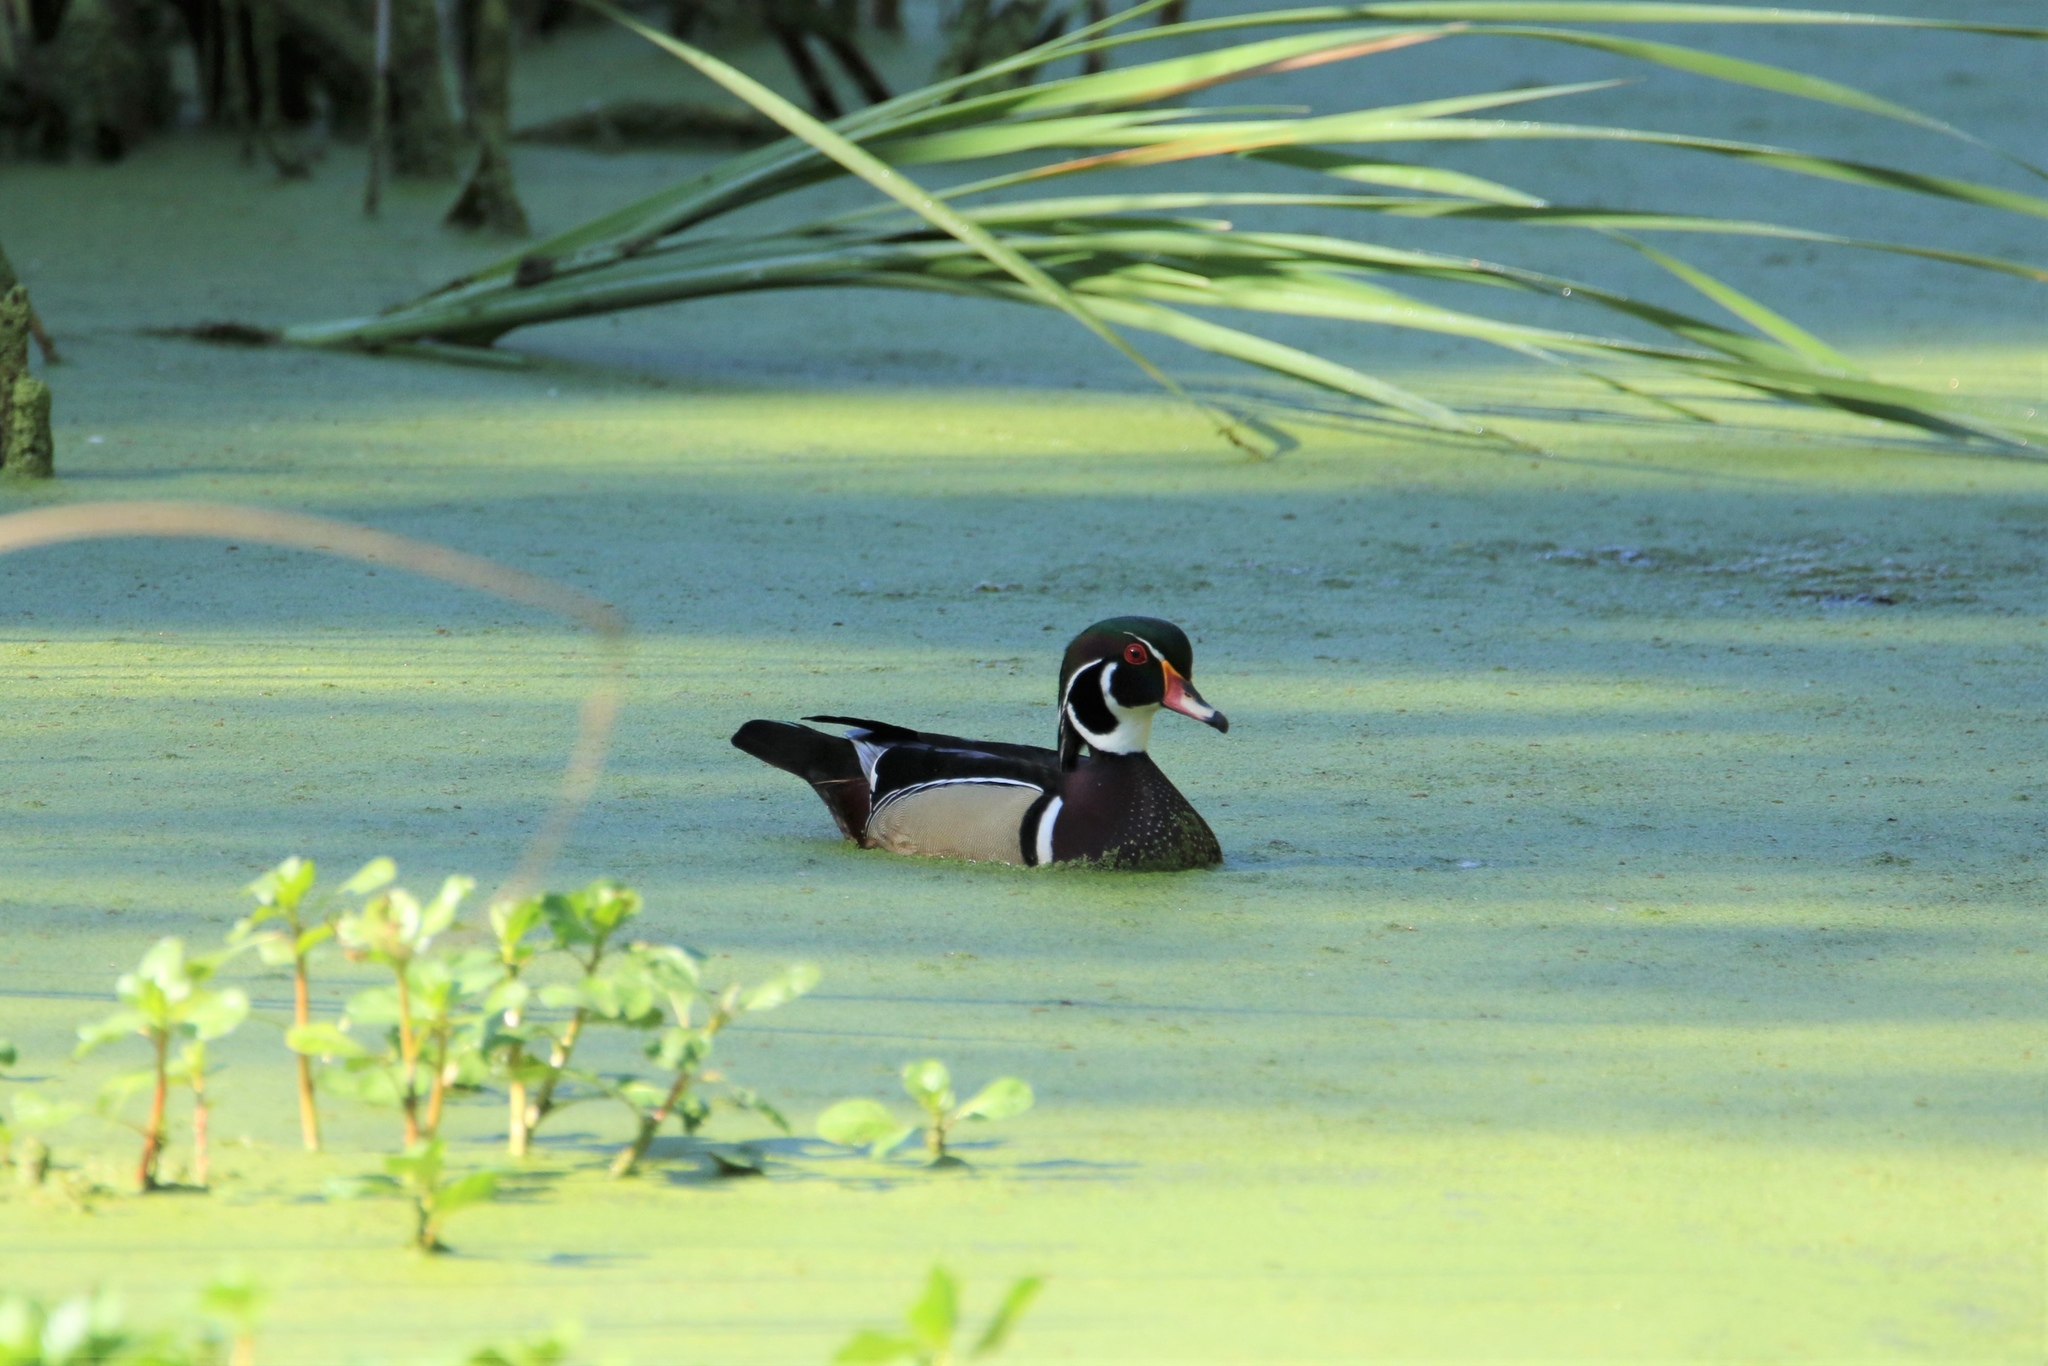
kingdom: Animalia
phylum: Chordata
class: Aves
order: Anseriformes
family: Anatidae
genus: Aix
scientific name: Aix sponsa
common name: Wood duck
